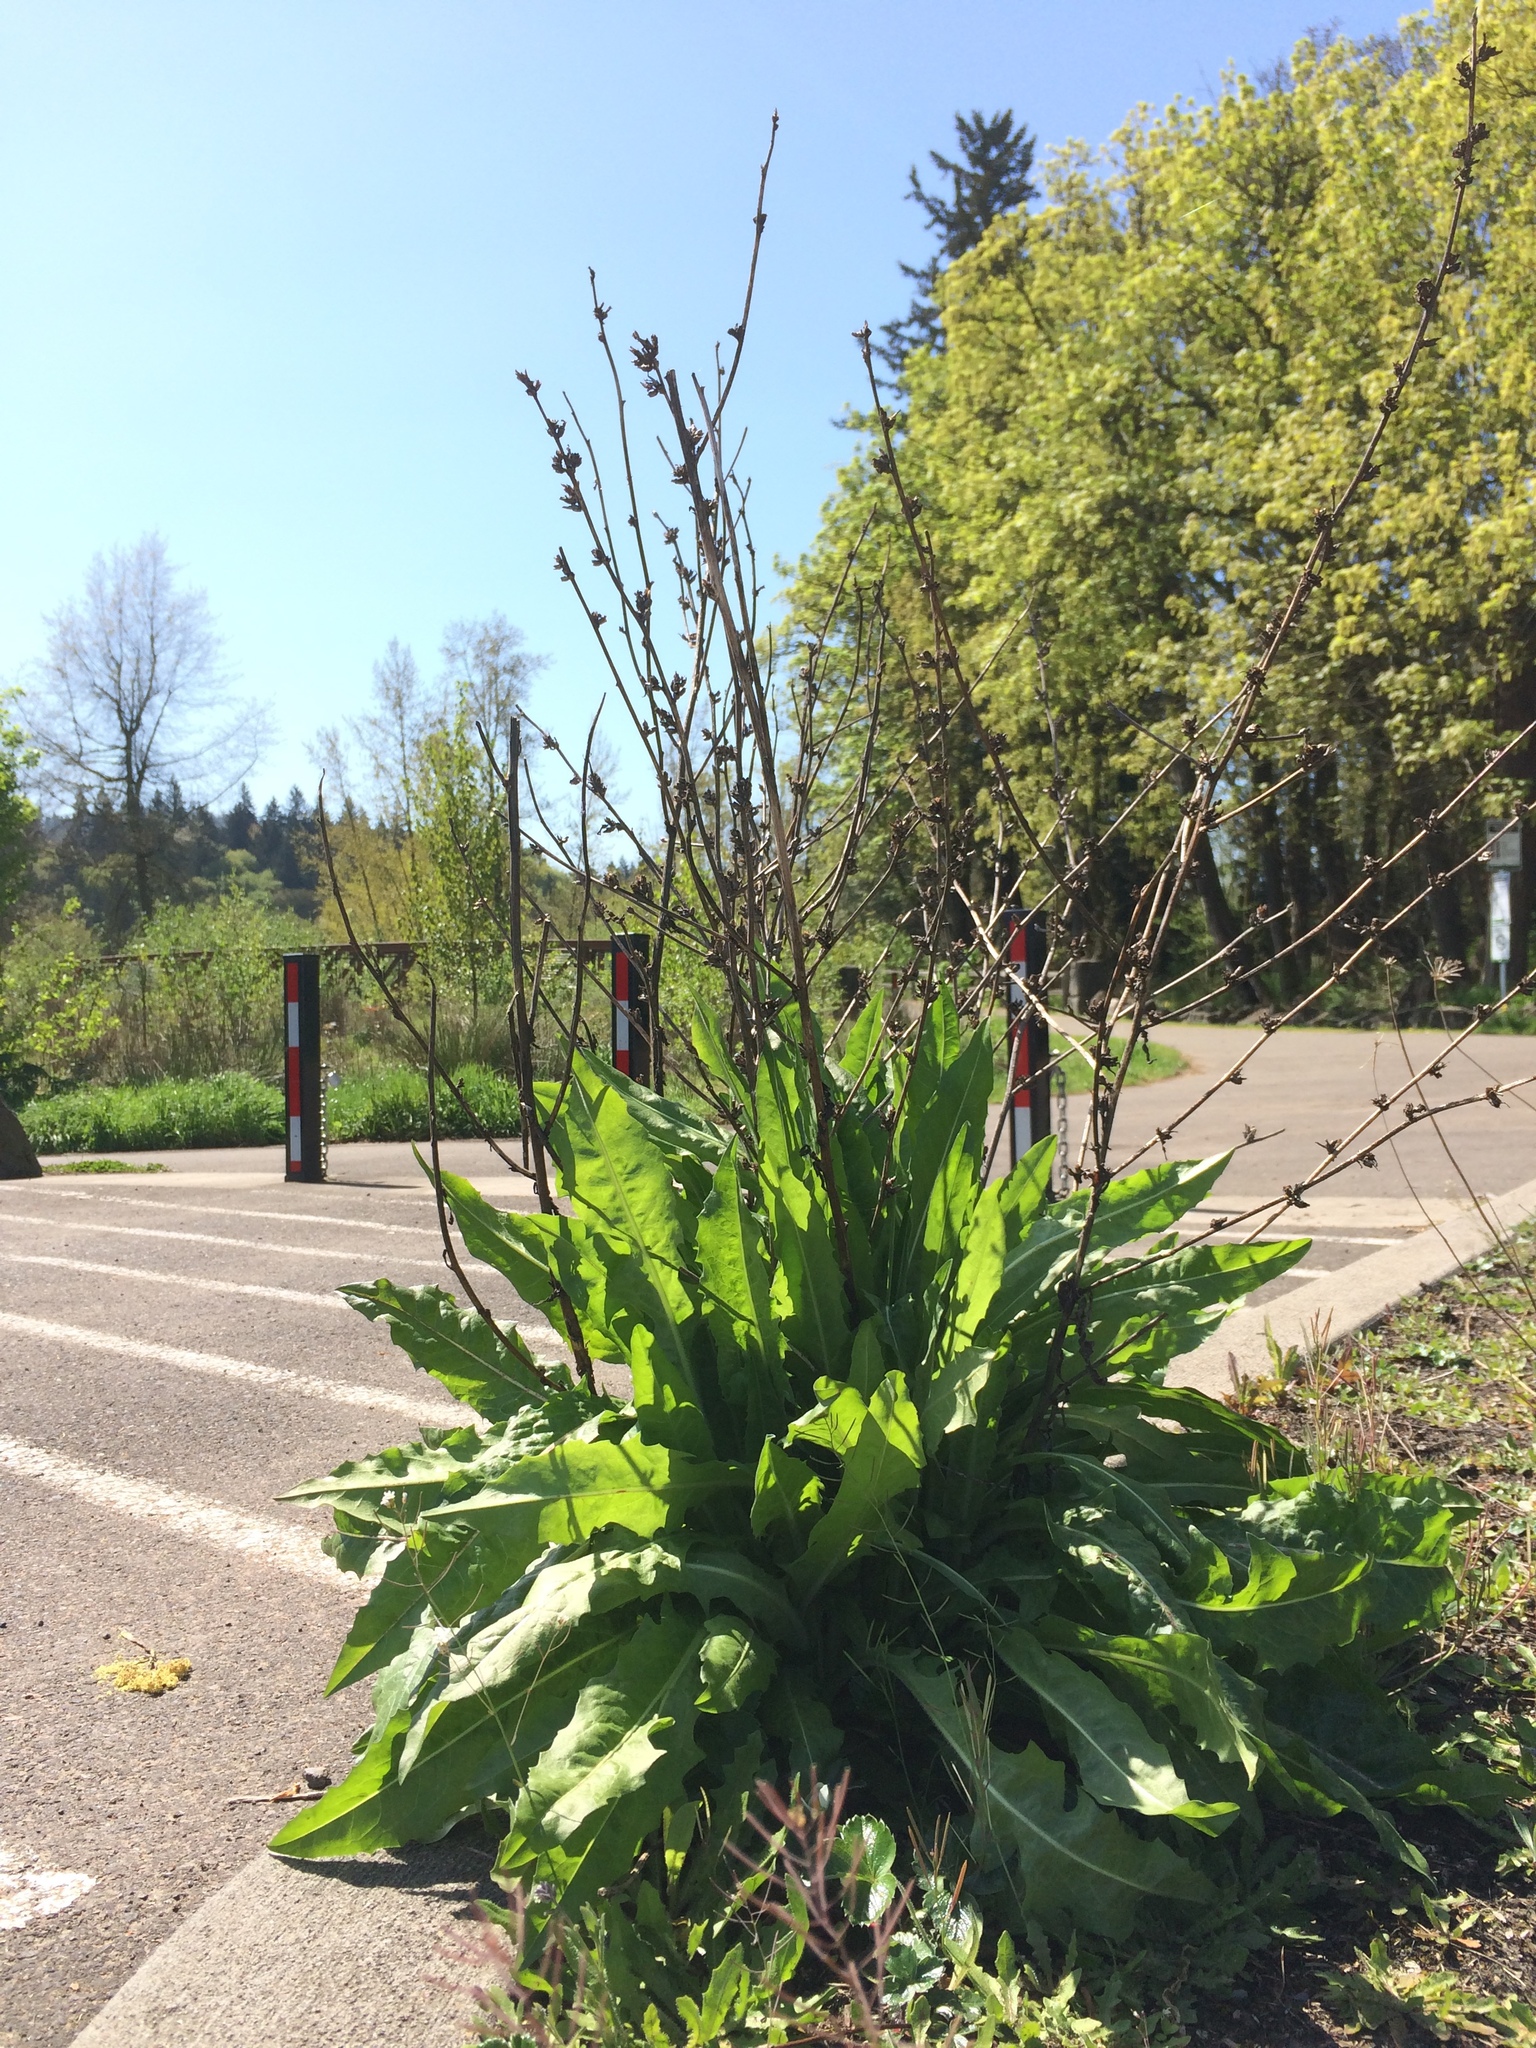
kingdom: Plantae
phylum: Tracheophyta
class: Magnoliopsida
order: Asterales
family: Asteraceae
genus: Cichorium
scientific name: Cichorium intybus
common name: Chicory
